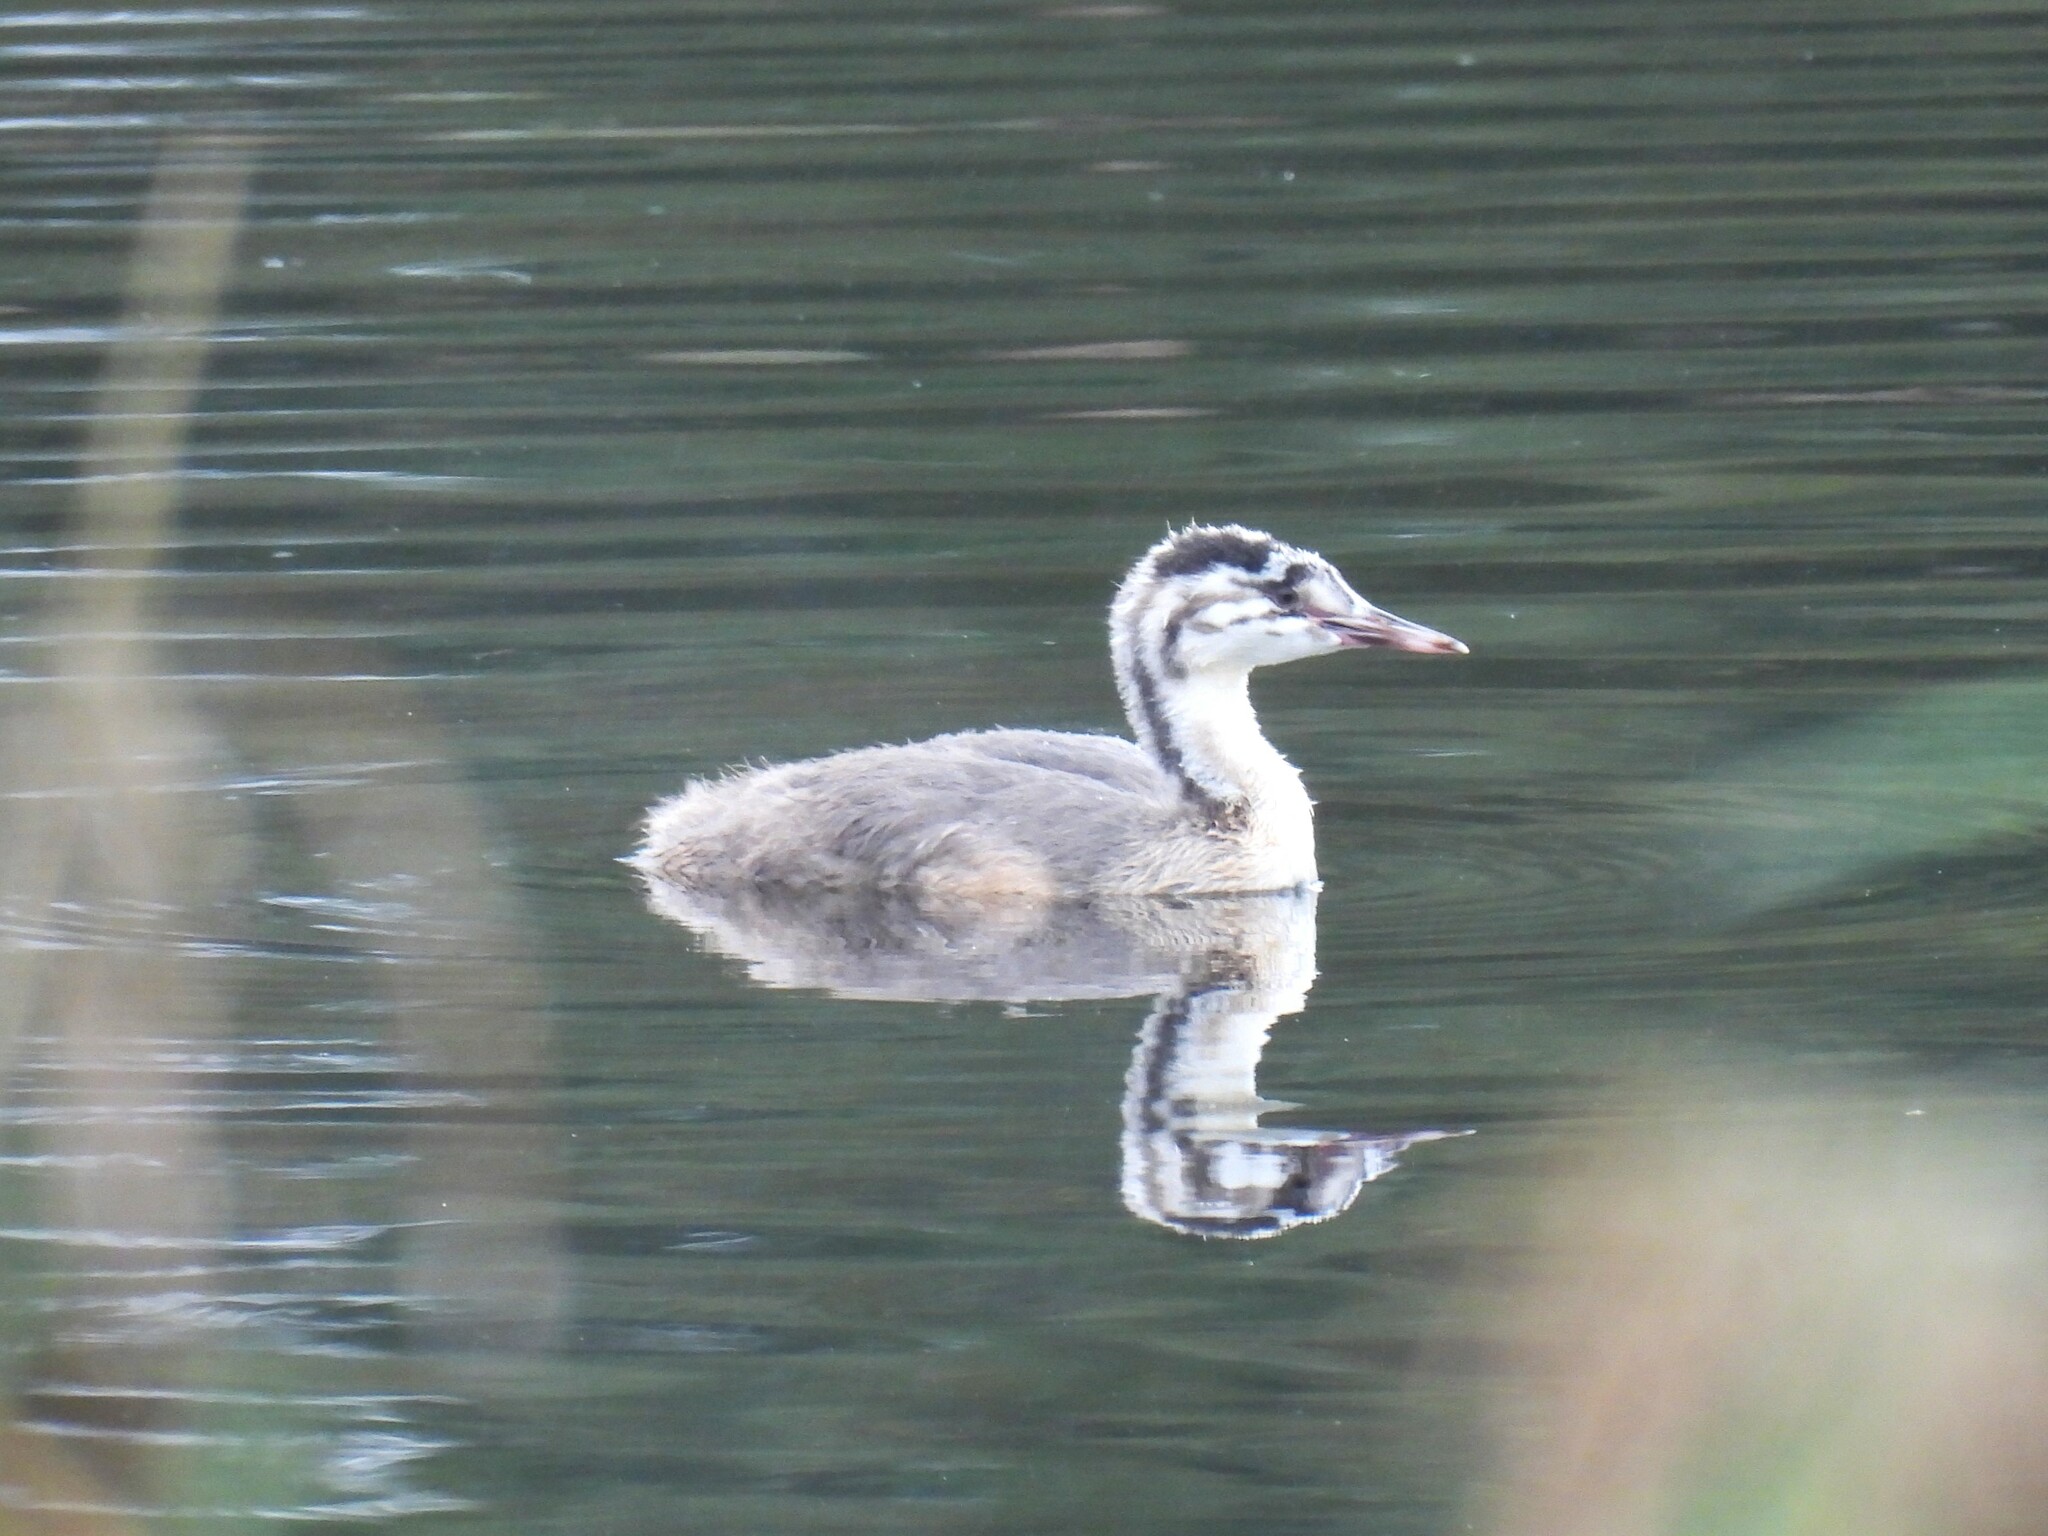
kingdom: Animalia
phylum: Chordata
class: Aves
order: Podicipediformes
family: Podicipedidae
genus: Podiceps
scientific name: Podiceps cristatus
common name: Great crested grebe
